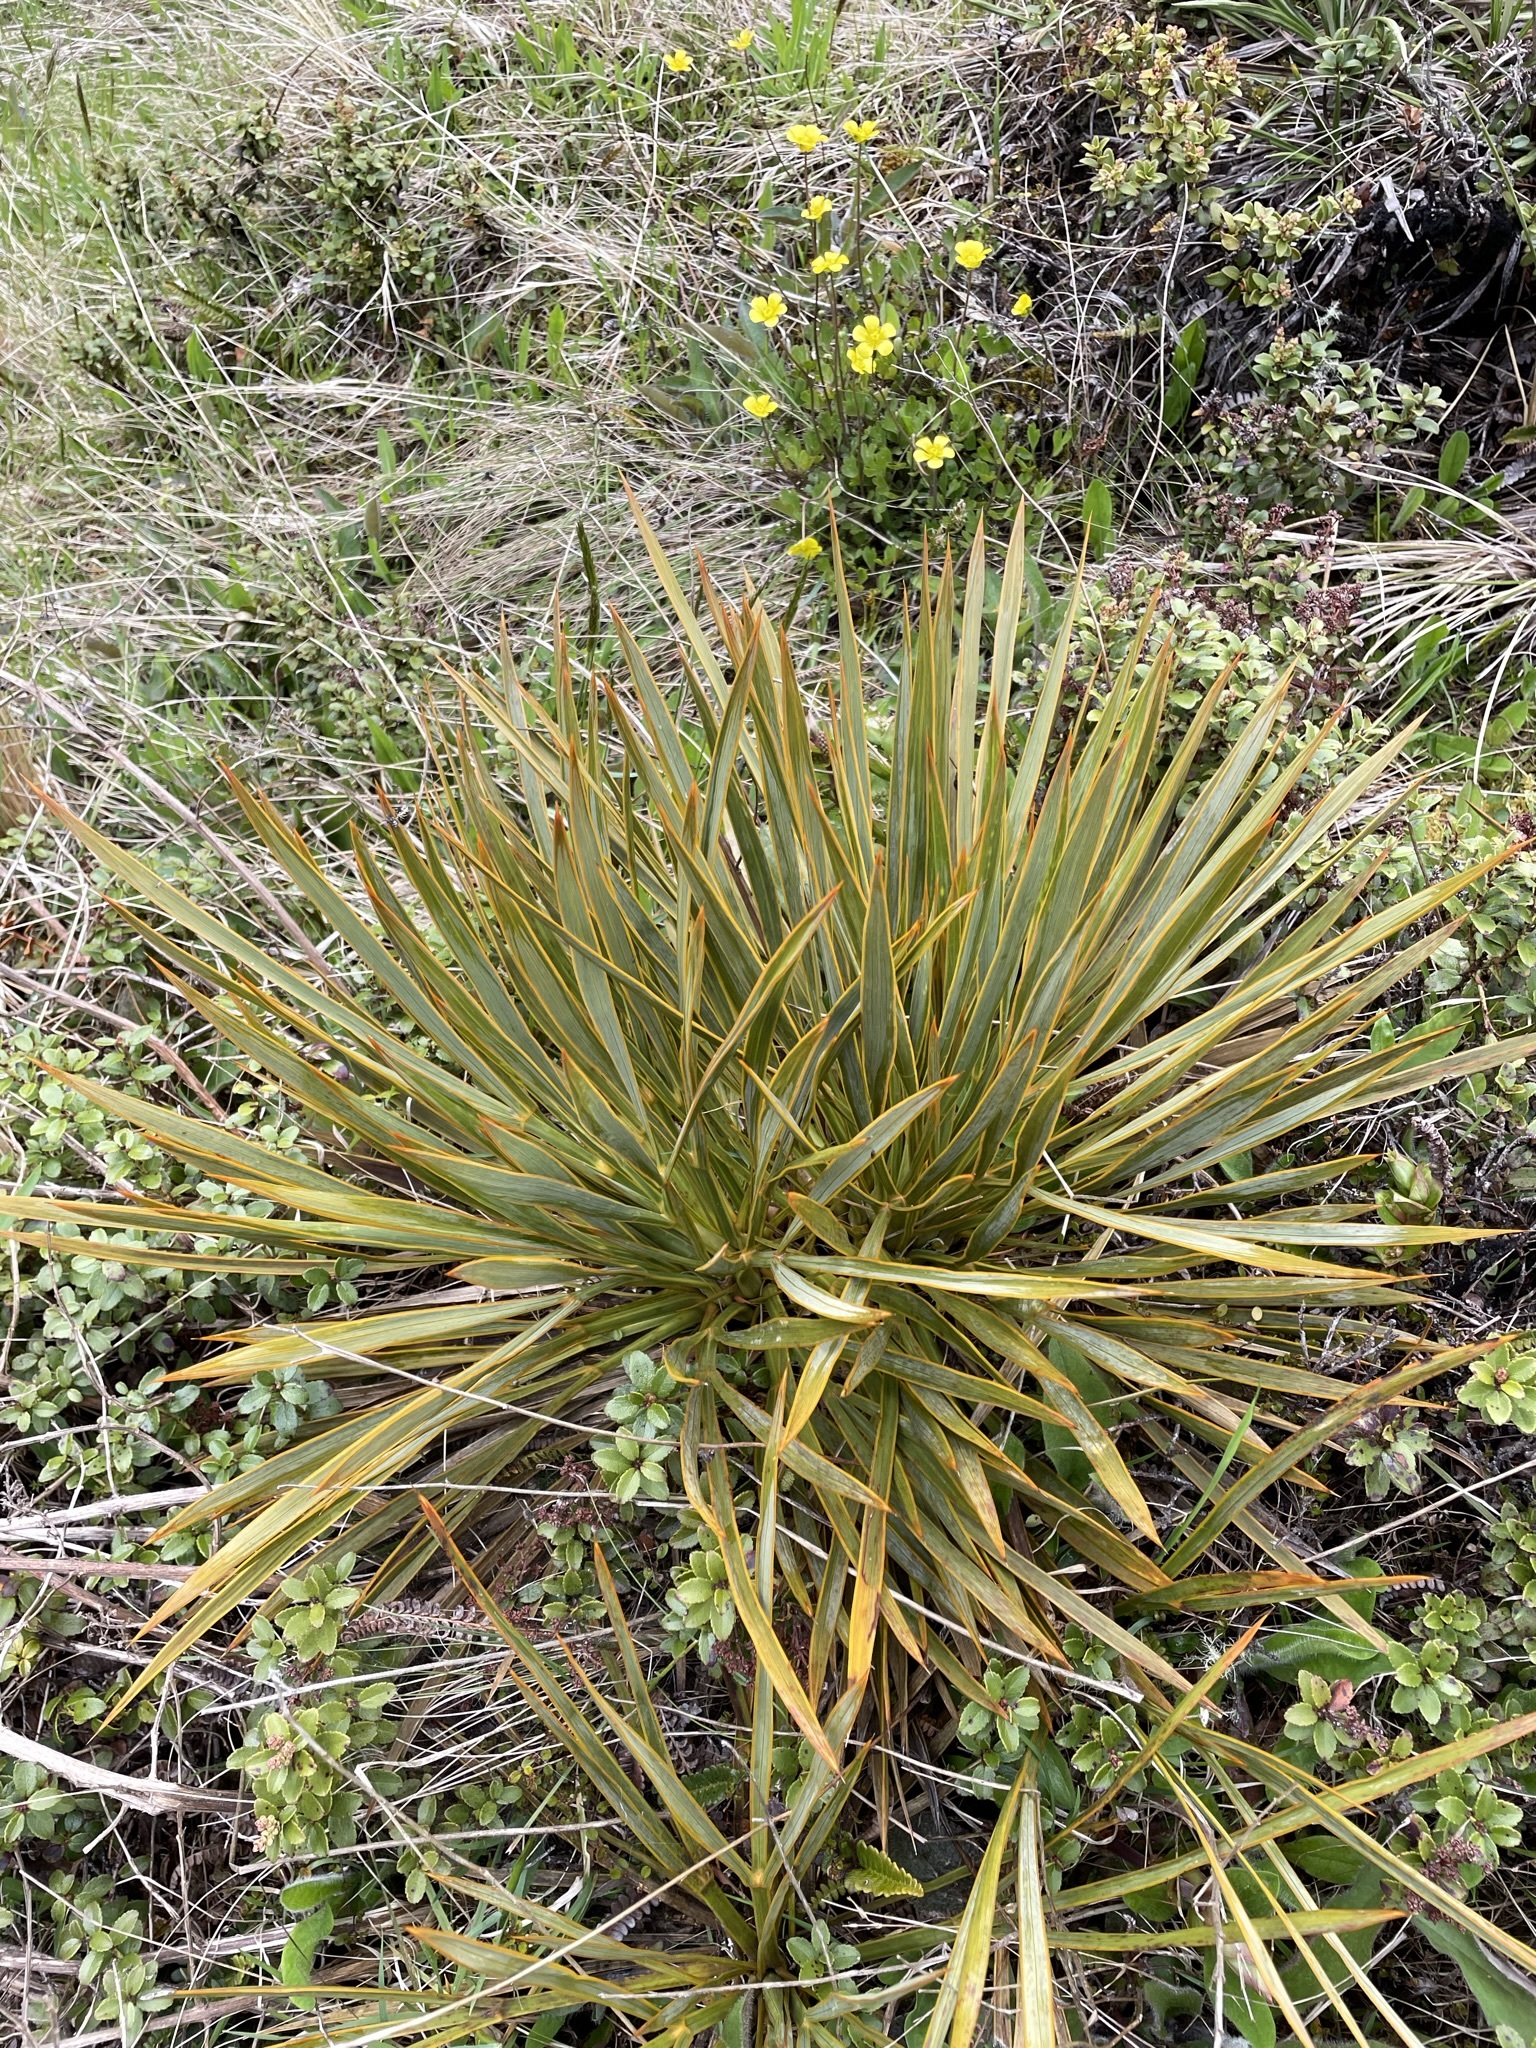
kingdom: Plantae
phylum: Tracheophyta
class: Magnoliopsida
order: Apiales
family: Apiaceae
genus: Aciphylla
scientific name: Aciphylla aurea
